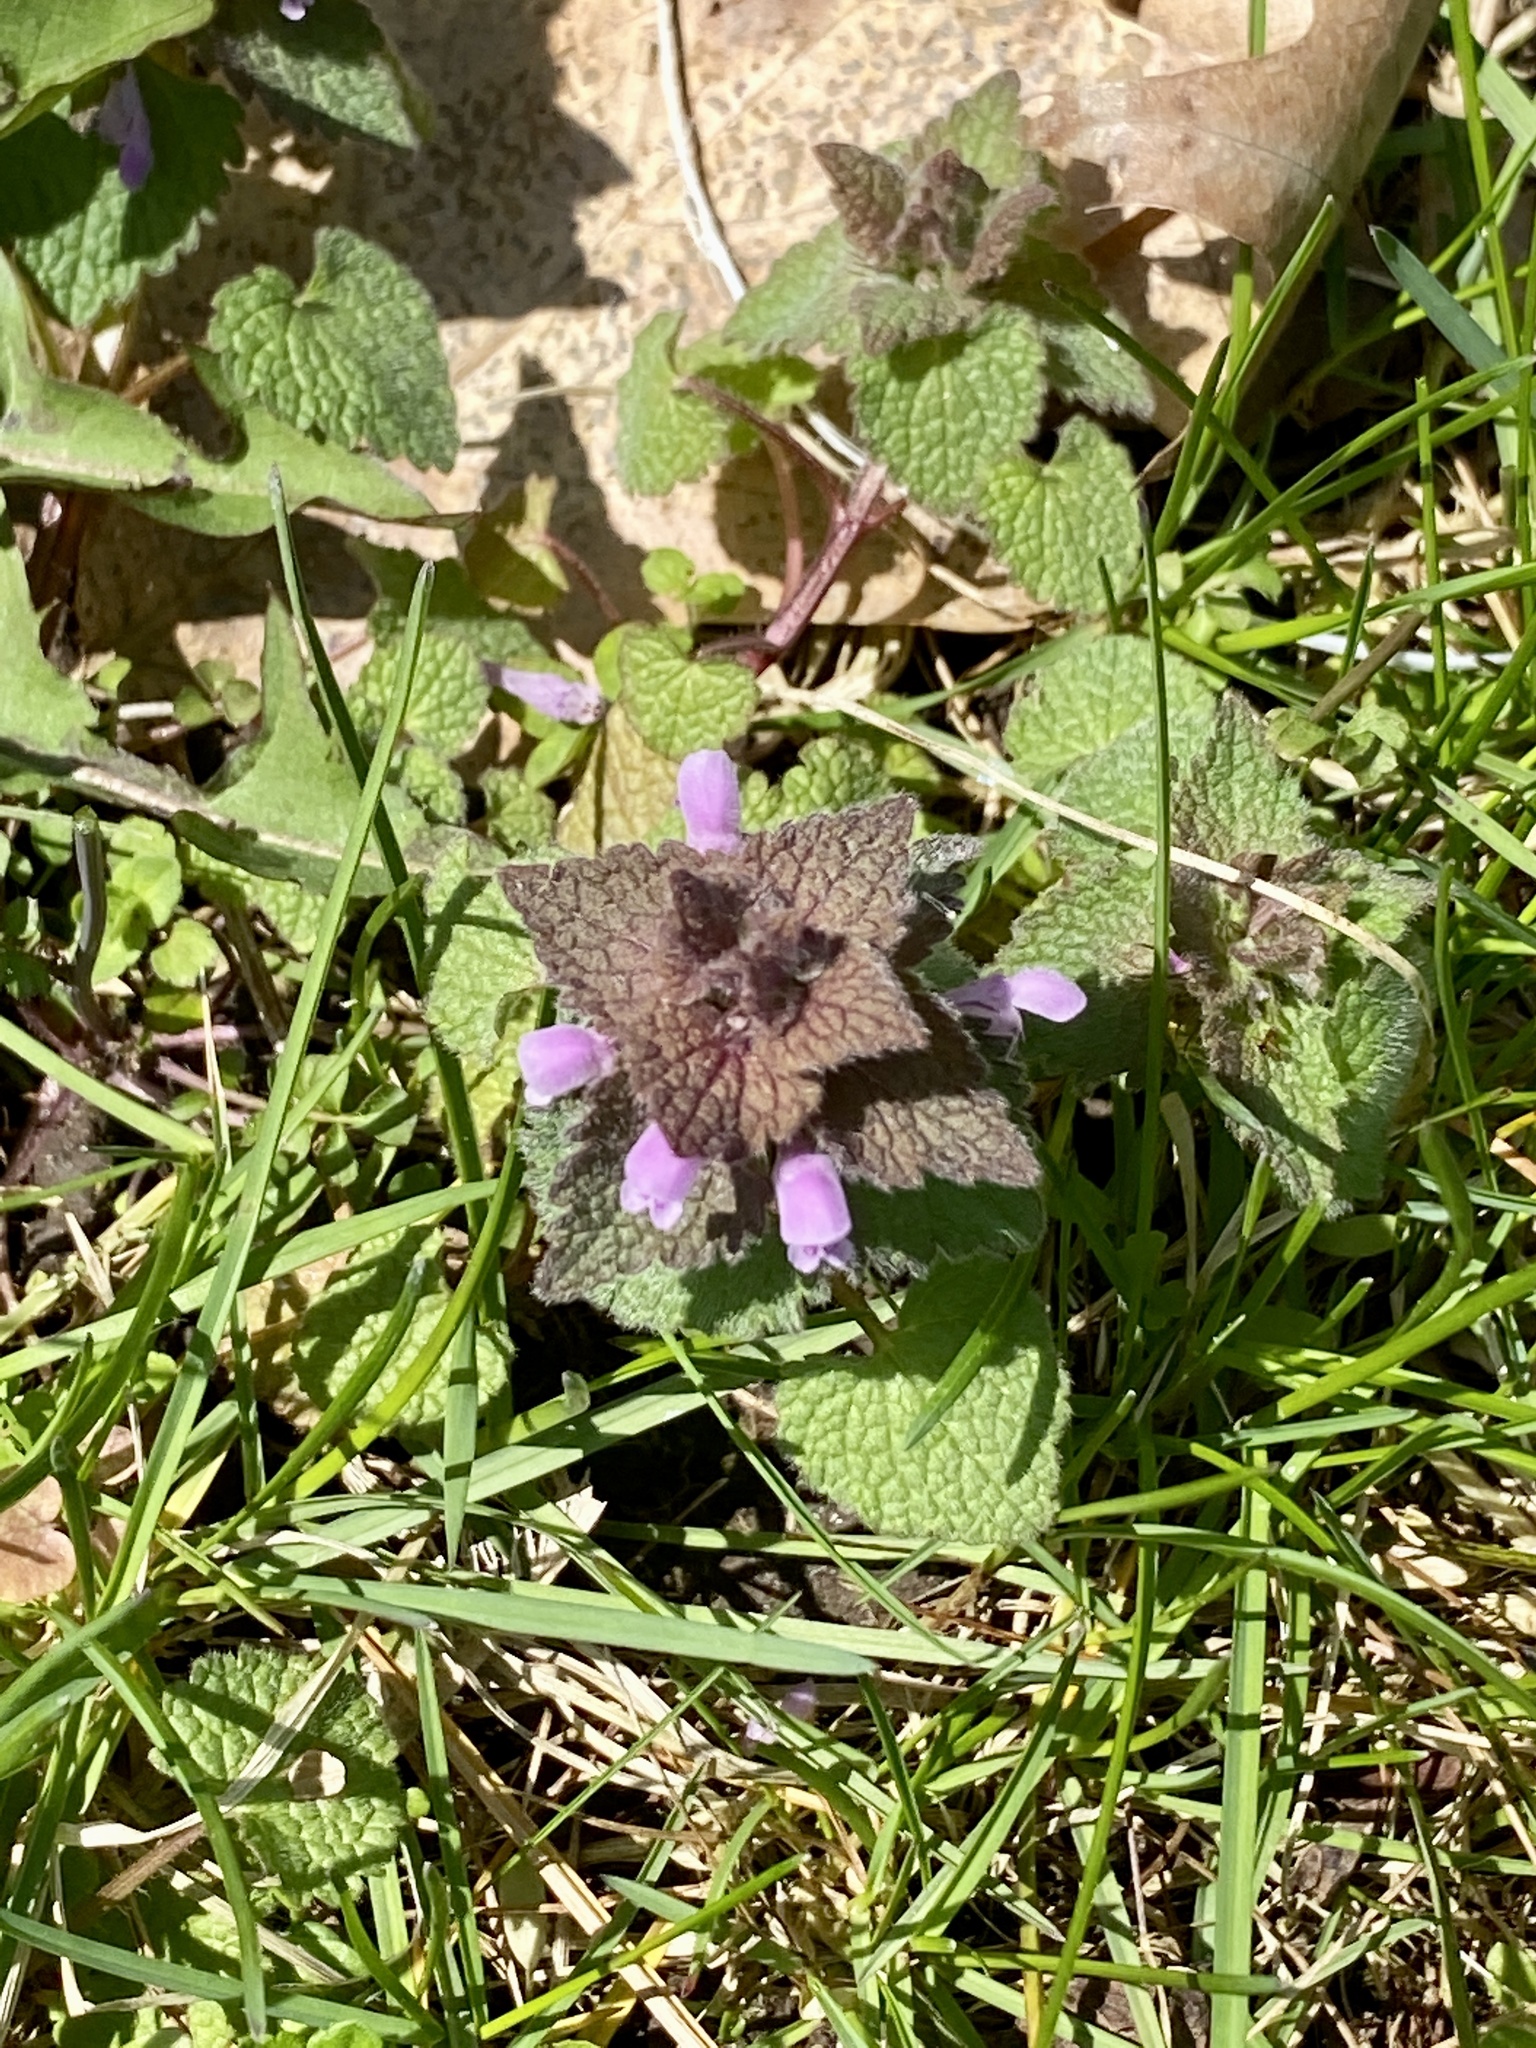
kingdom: Plantae
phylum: Tracheophyta
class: Magnoliopsida
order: Lamiales
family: Lamiaceae
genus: Lamium
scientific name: Lamium purpureum
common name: Red dead-nettle
